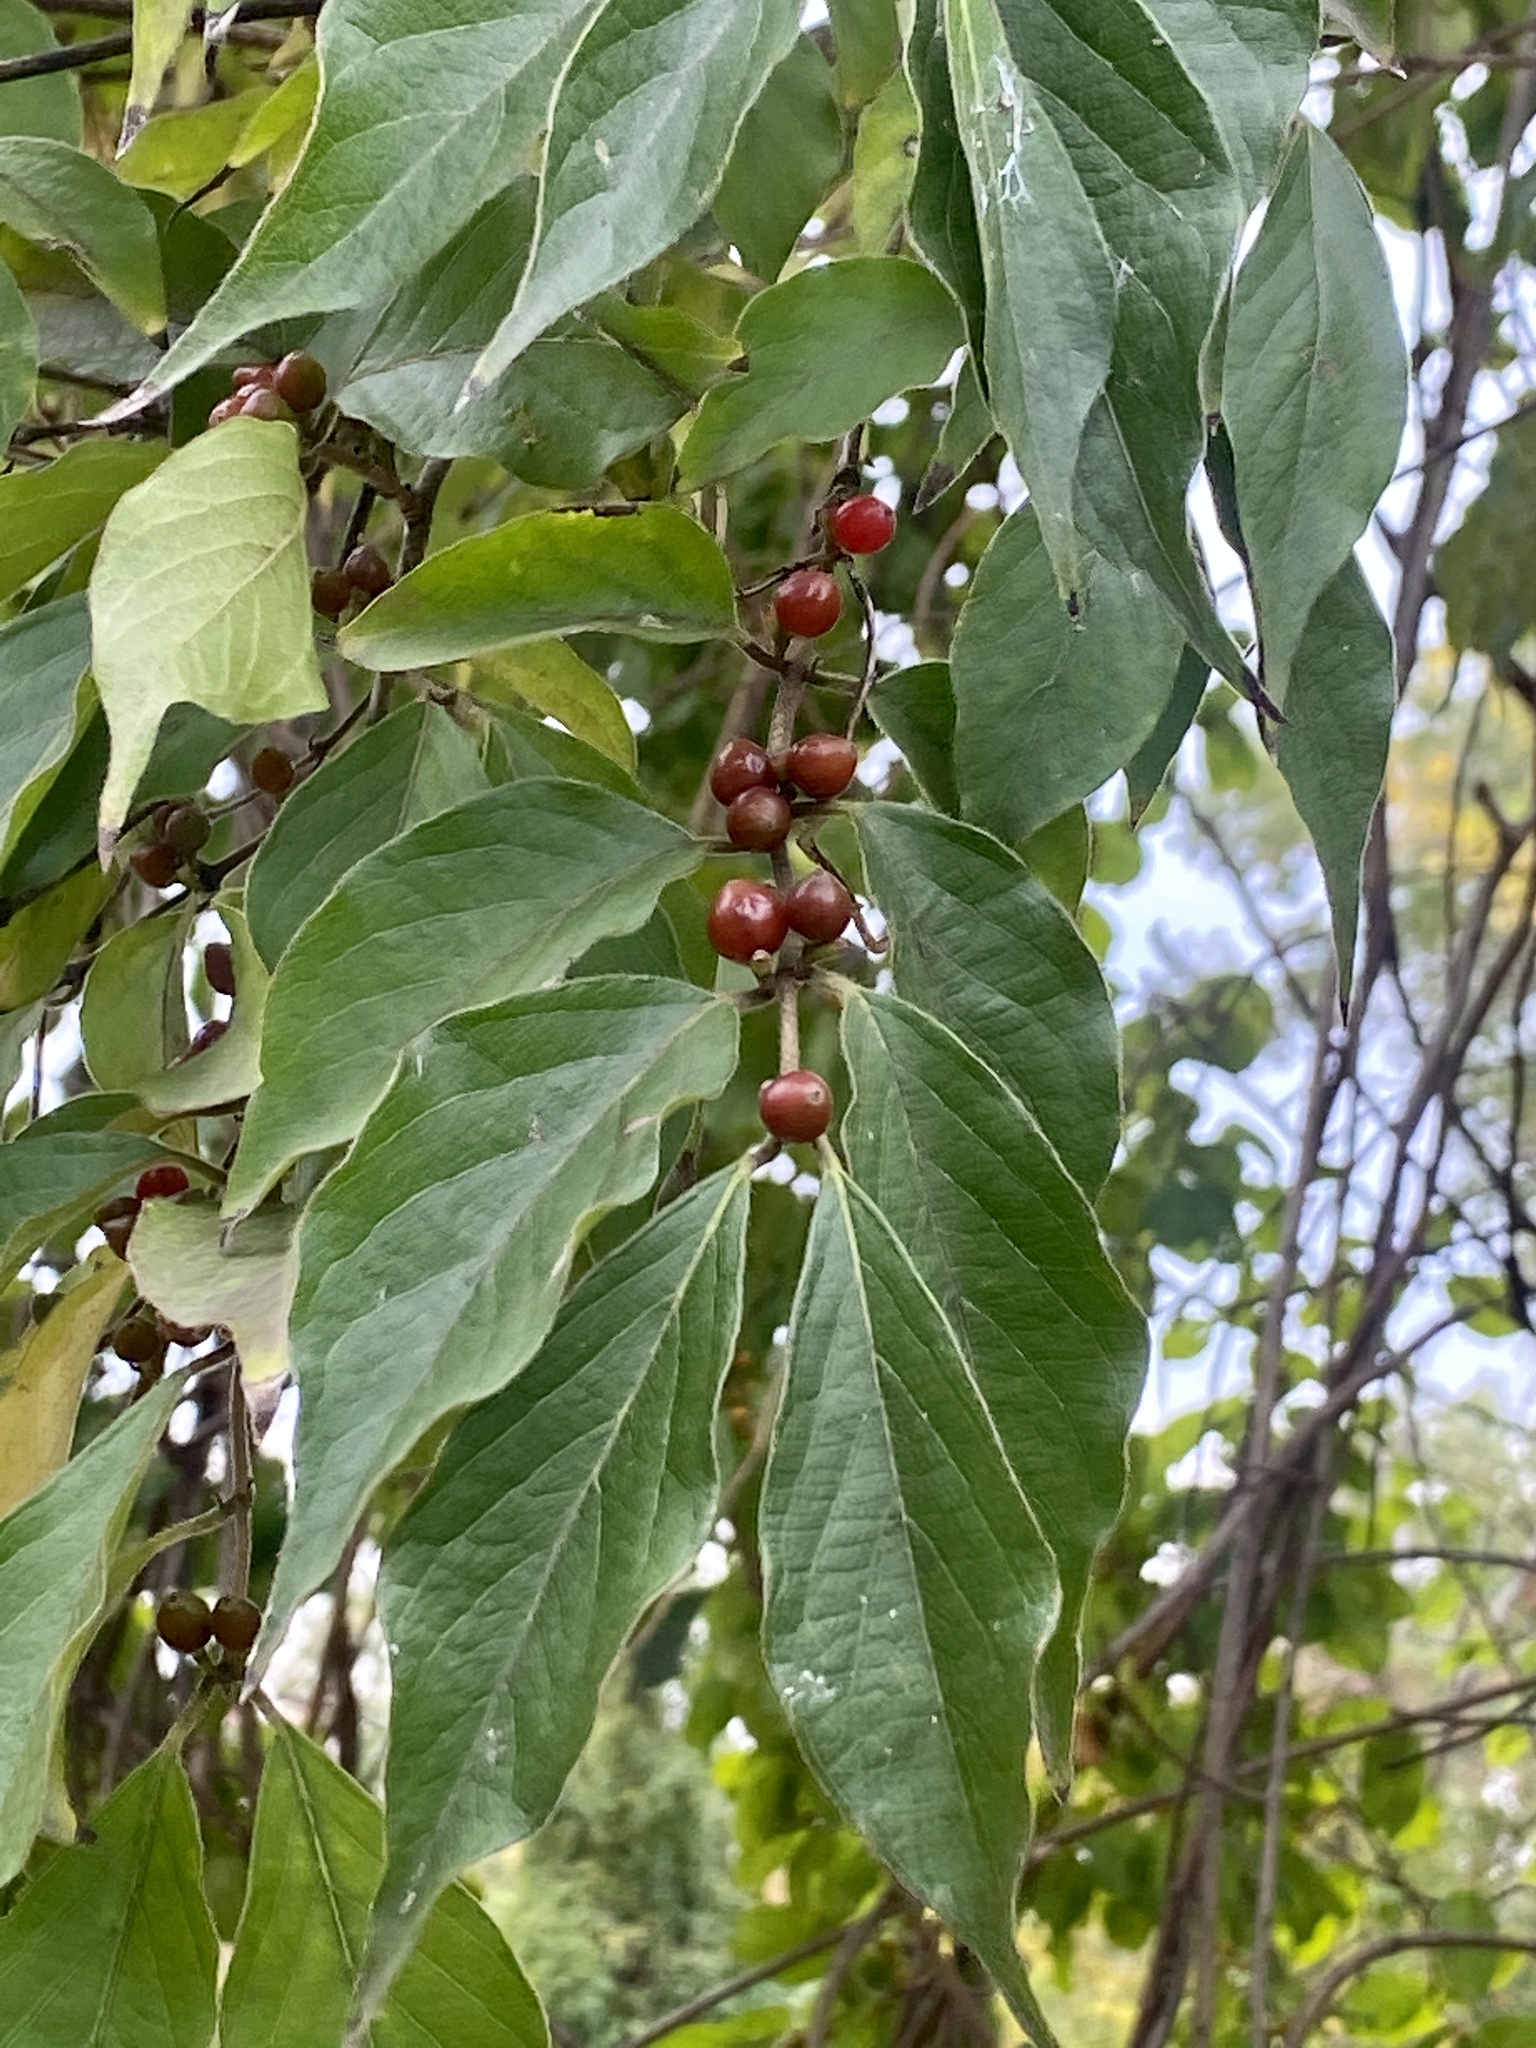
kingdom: Plantae
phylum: Tracheophyta
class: Magnoliopsida
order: Dipsacales
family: Caprifoliaceae
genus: Lonicera
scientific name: Lonicera maackii
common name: Amur honeysuckle
